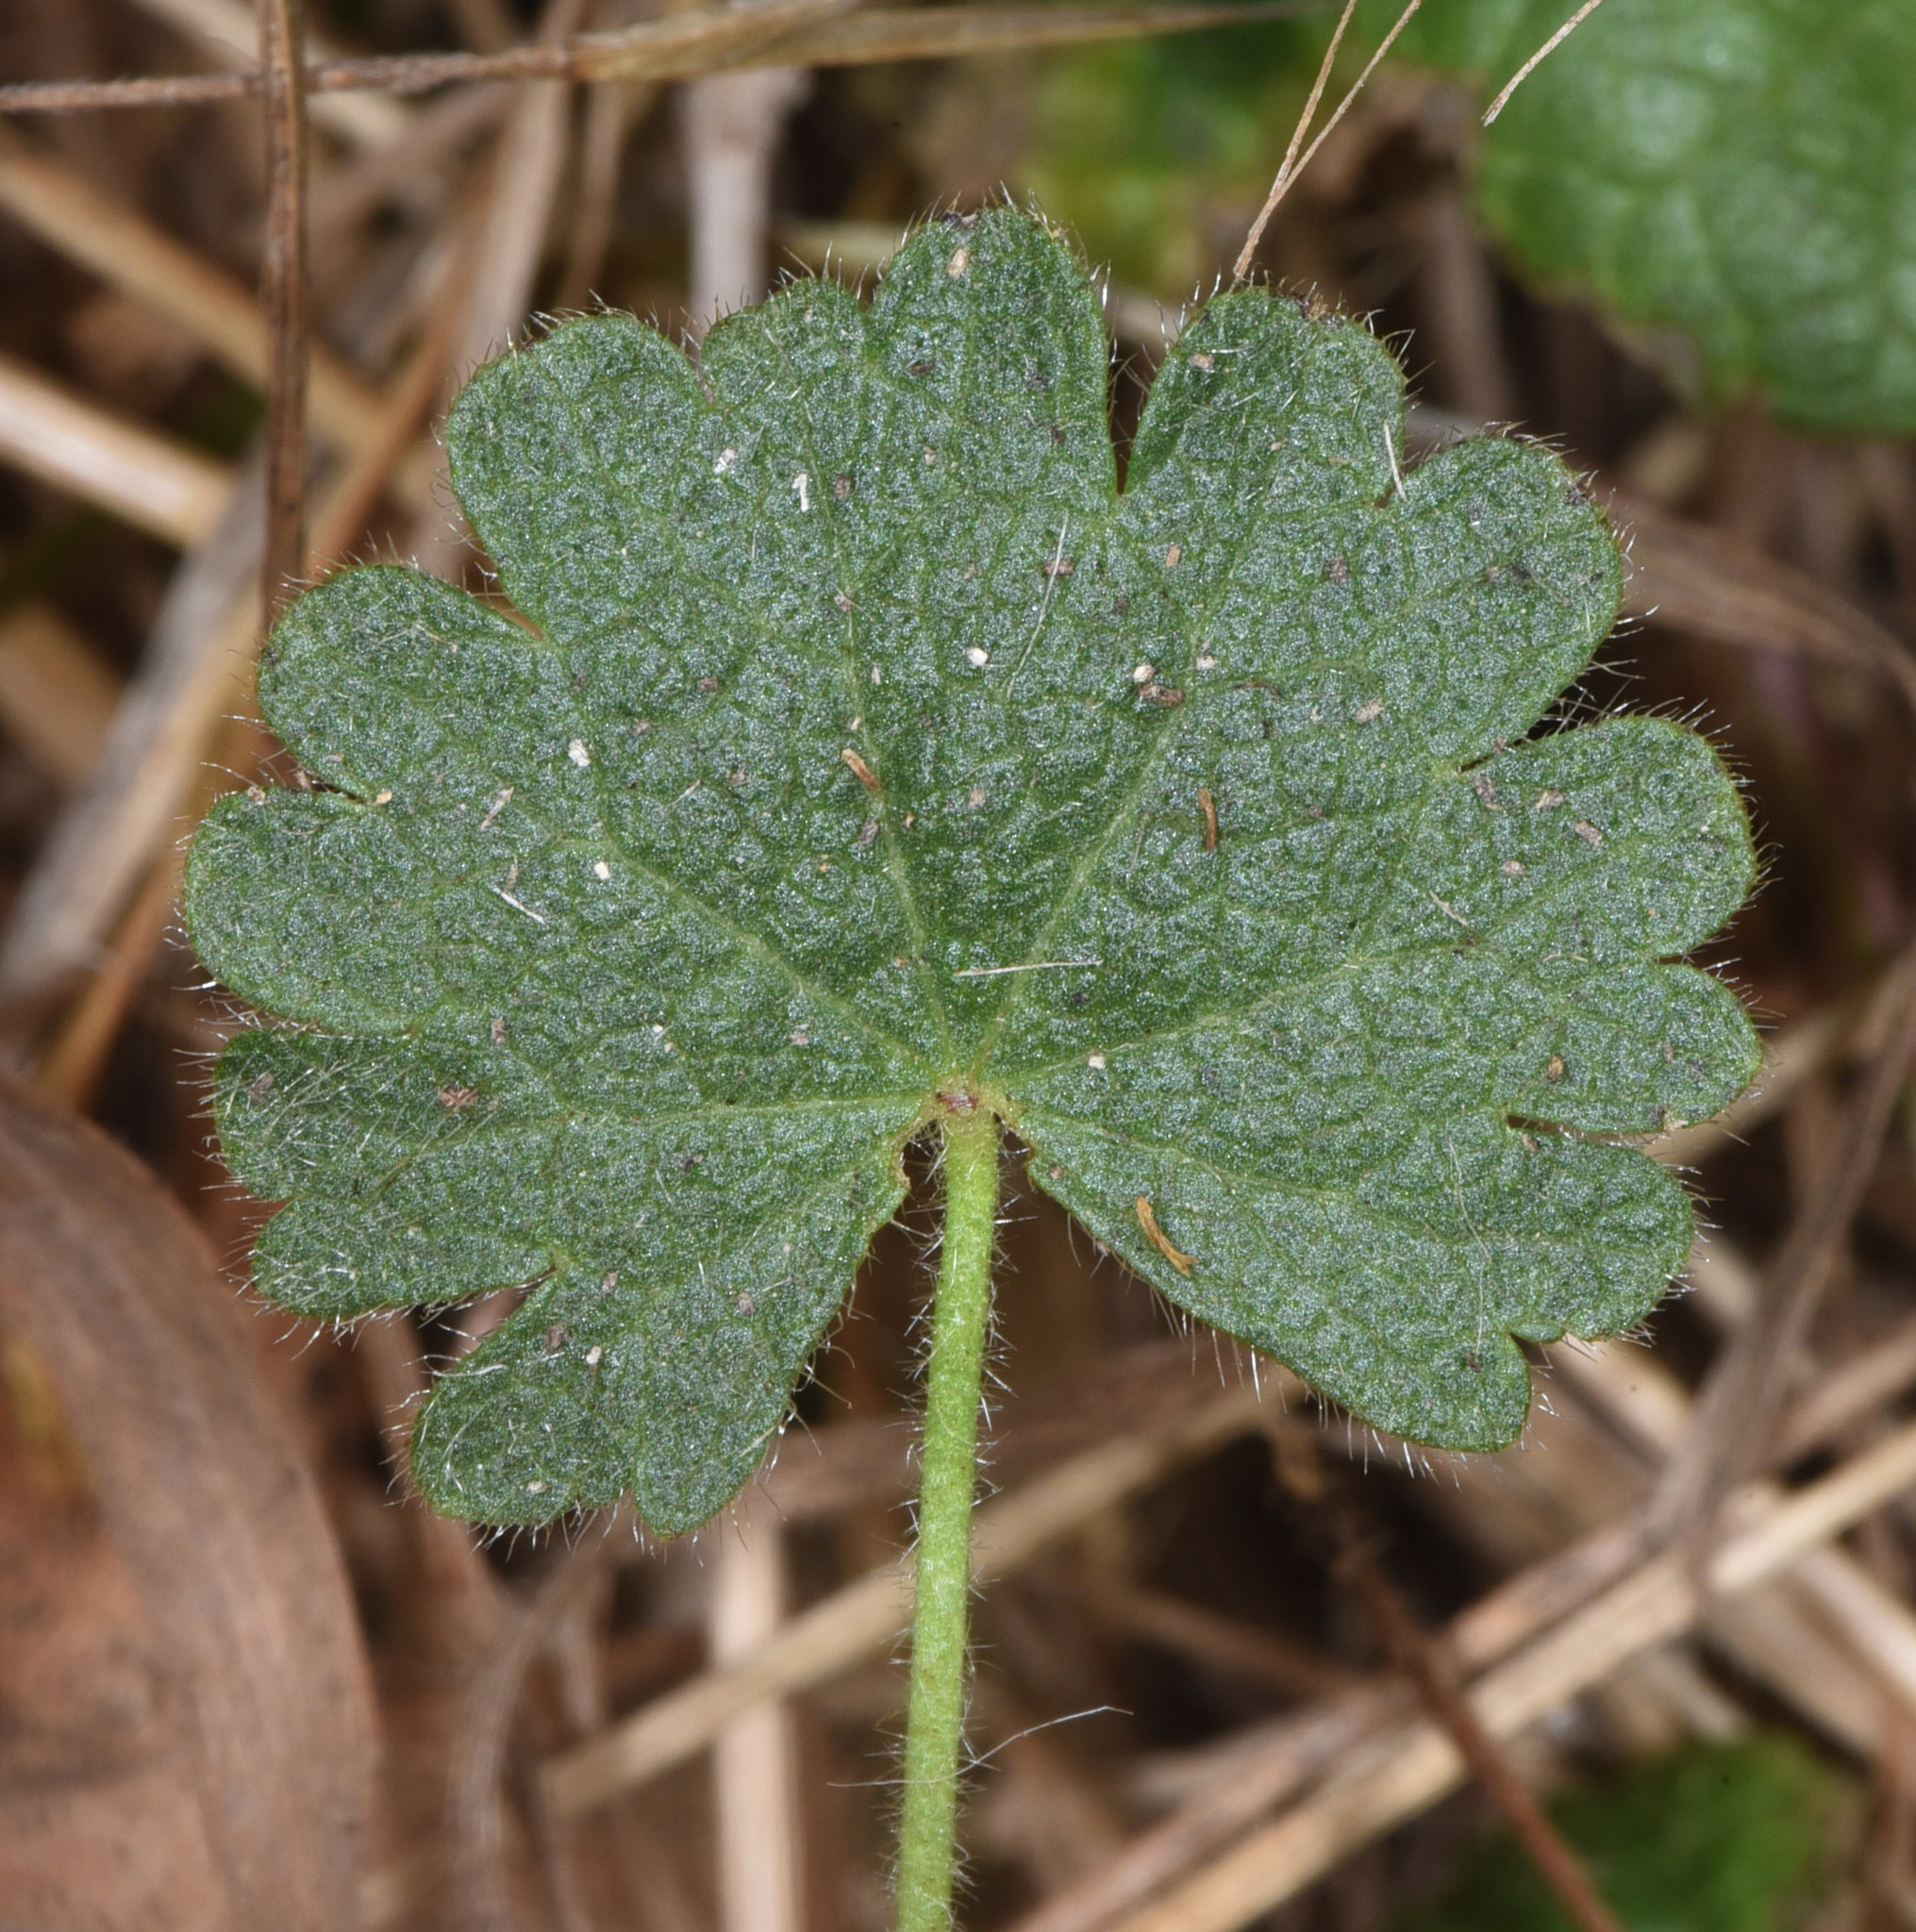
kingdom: Plantae
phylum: Tracheophyta
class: Magnoliopsida
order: Malvales
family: Malvaceae
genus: Sidalcea
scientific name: Sidalcea malviflora
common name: Greek mallow
